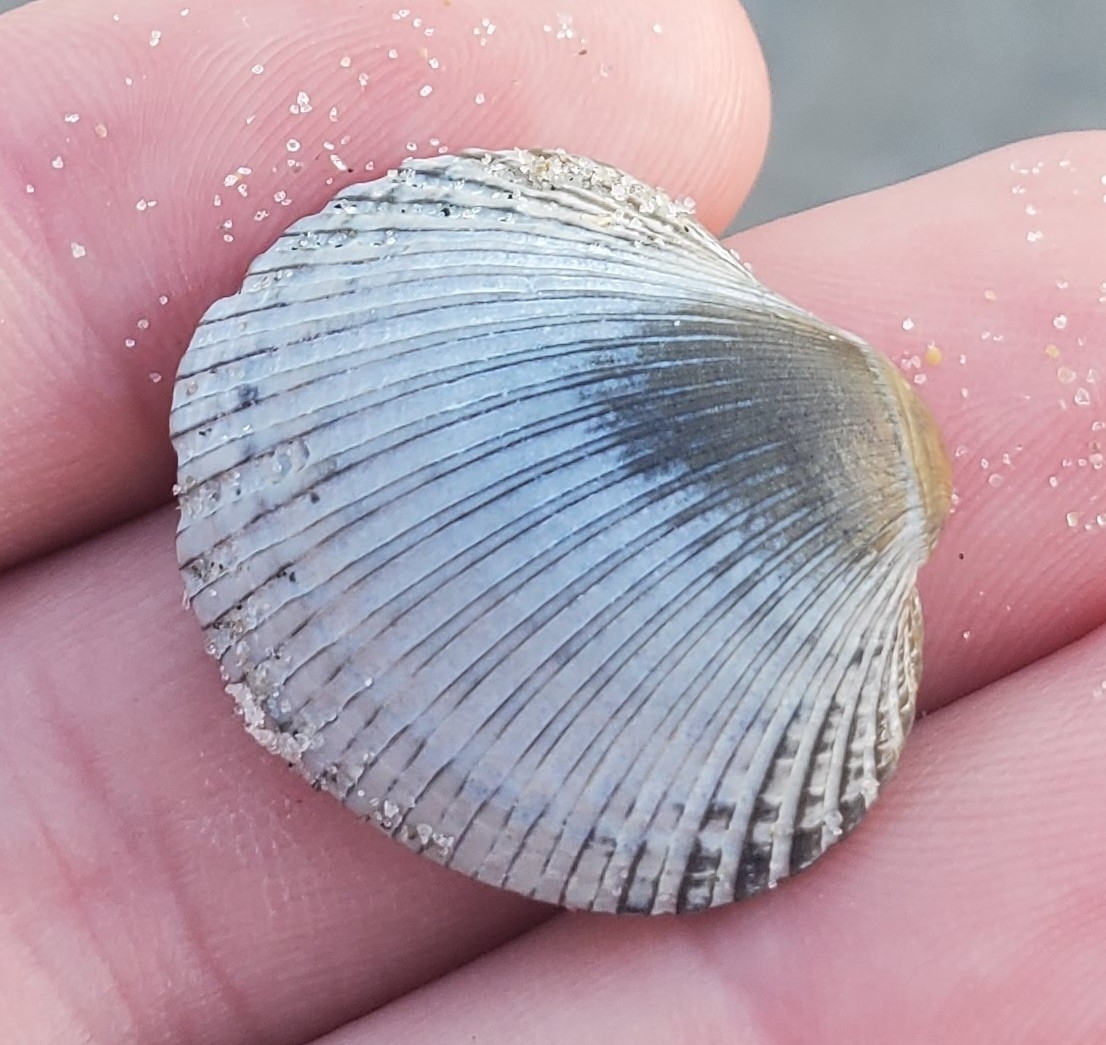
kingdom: Animalia
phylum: Mollusca
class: Bivalvia
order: Arcida
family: Arcidae
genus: Lunarca
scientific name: Lunarca ovalis
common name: Blood ark
